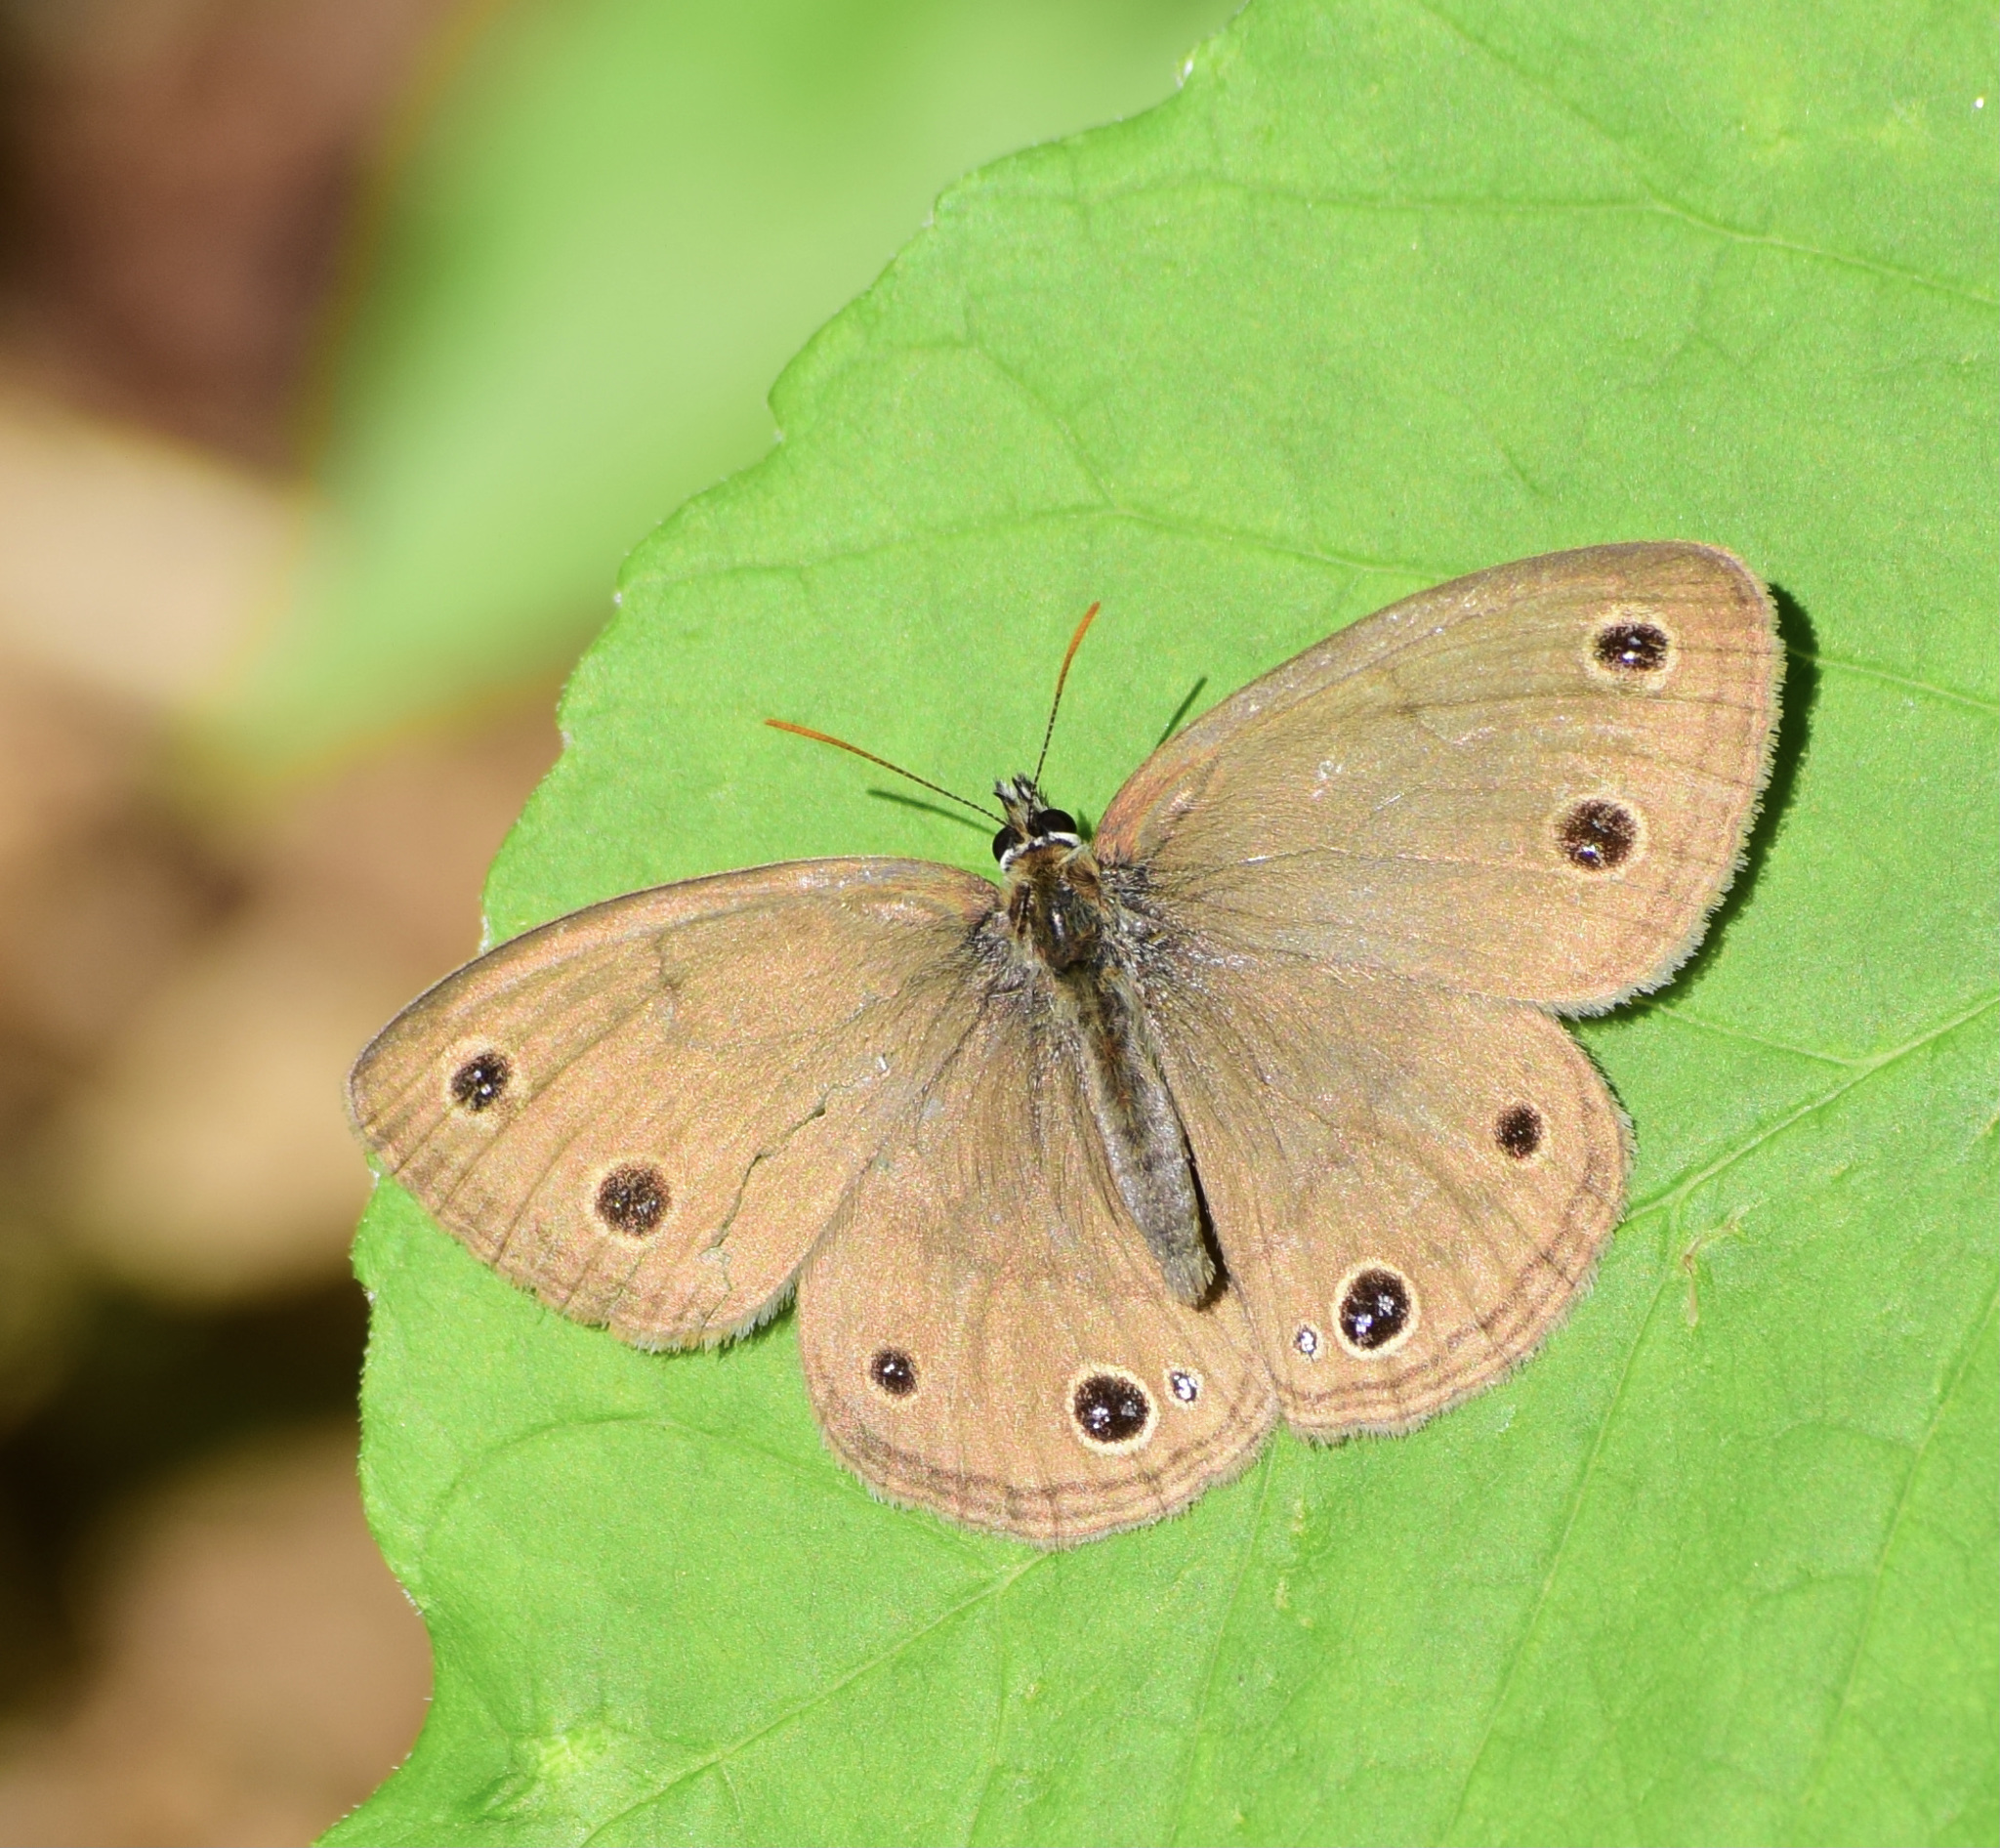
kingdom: Animalia
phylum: Arthropoda
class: Insecta
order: Lepidoptera
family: Nymphalidae
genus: Euptychia
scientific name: Euptychia cymela
